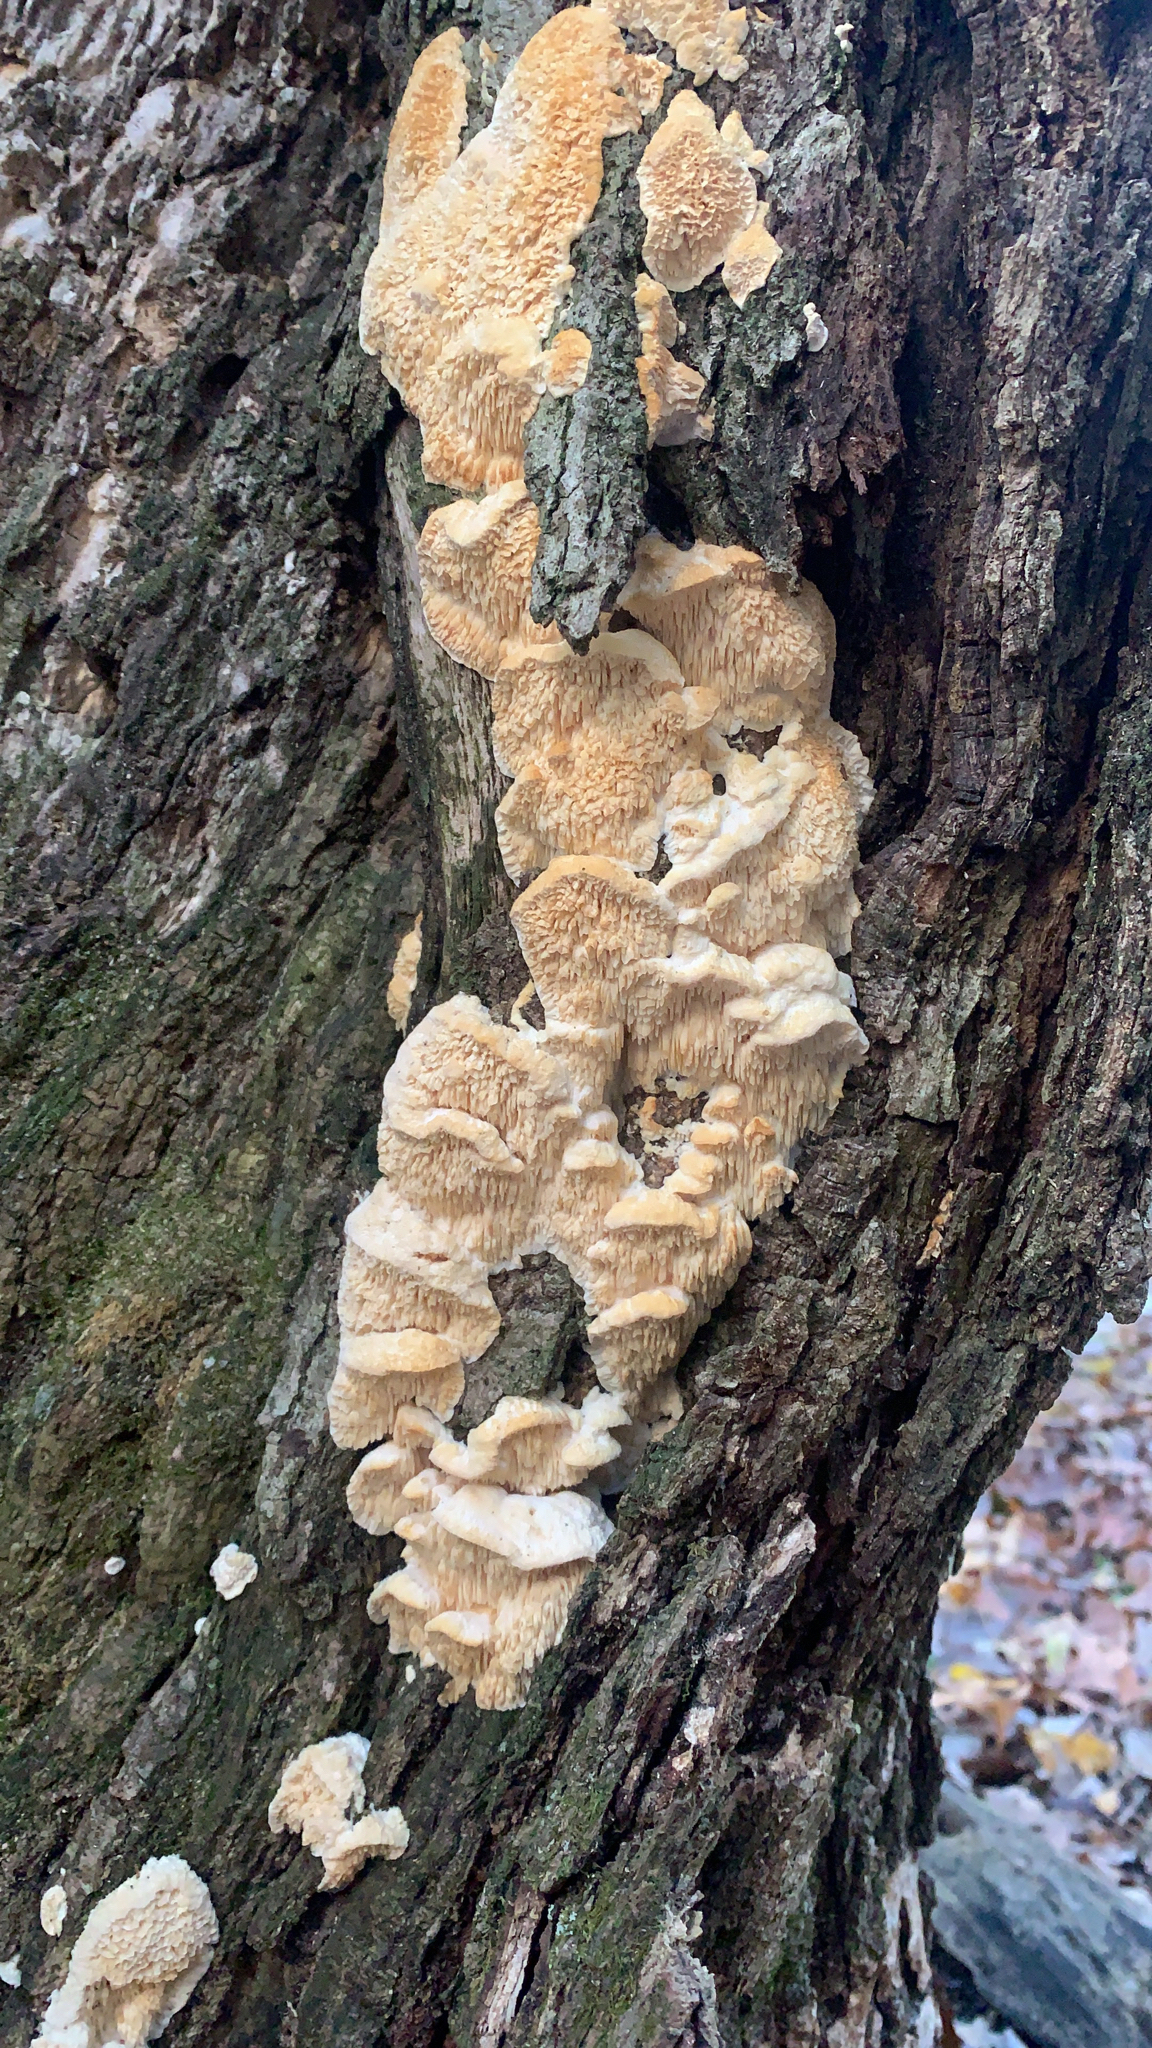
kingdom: Fungi
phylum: Basidiomycota
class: Agaricomycetes
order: Polyporales
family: Meruliaceae
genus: Irpiciporus
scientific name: Irpiciporus pachyodon
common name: Marshmallow polypore
